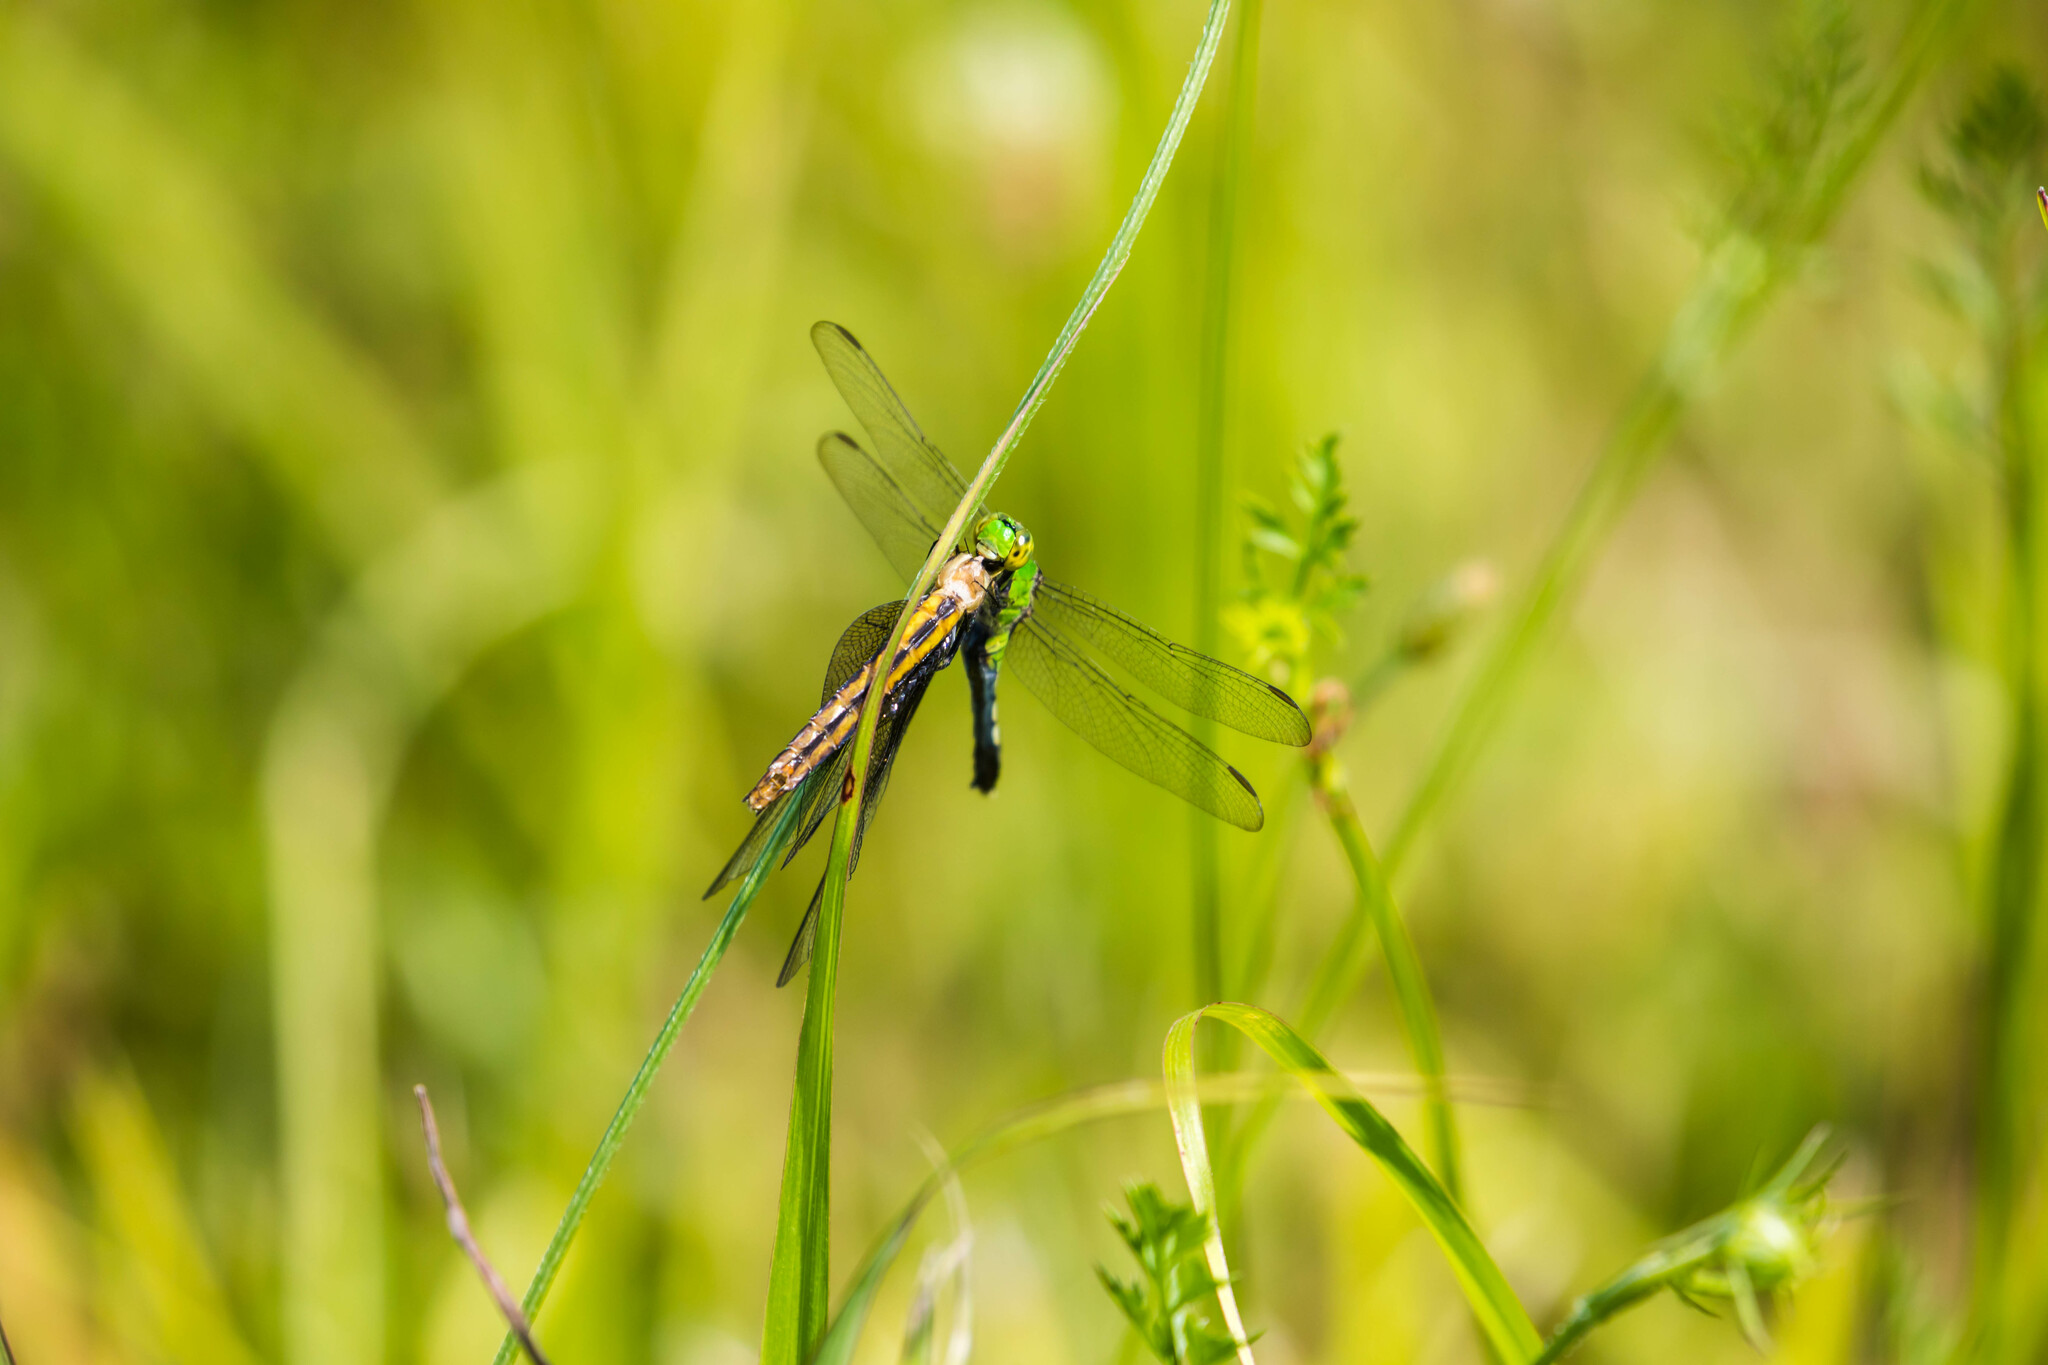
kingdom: Animalia
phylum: Arthropoda
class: Insecta
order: Odonata
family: Libellulidae
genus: Erythemis
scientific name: Erythemis simplicicollis
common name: Eastern pondhawk
